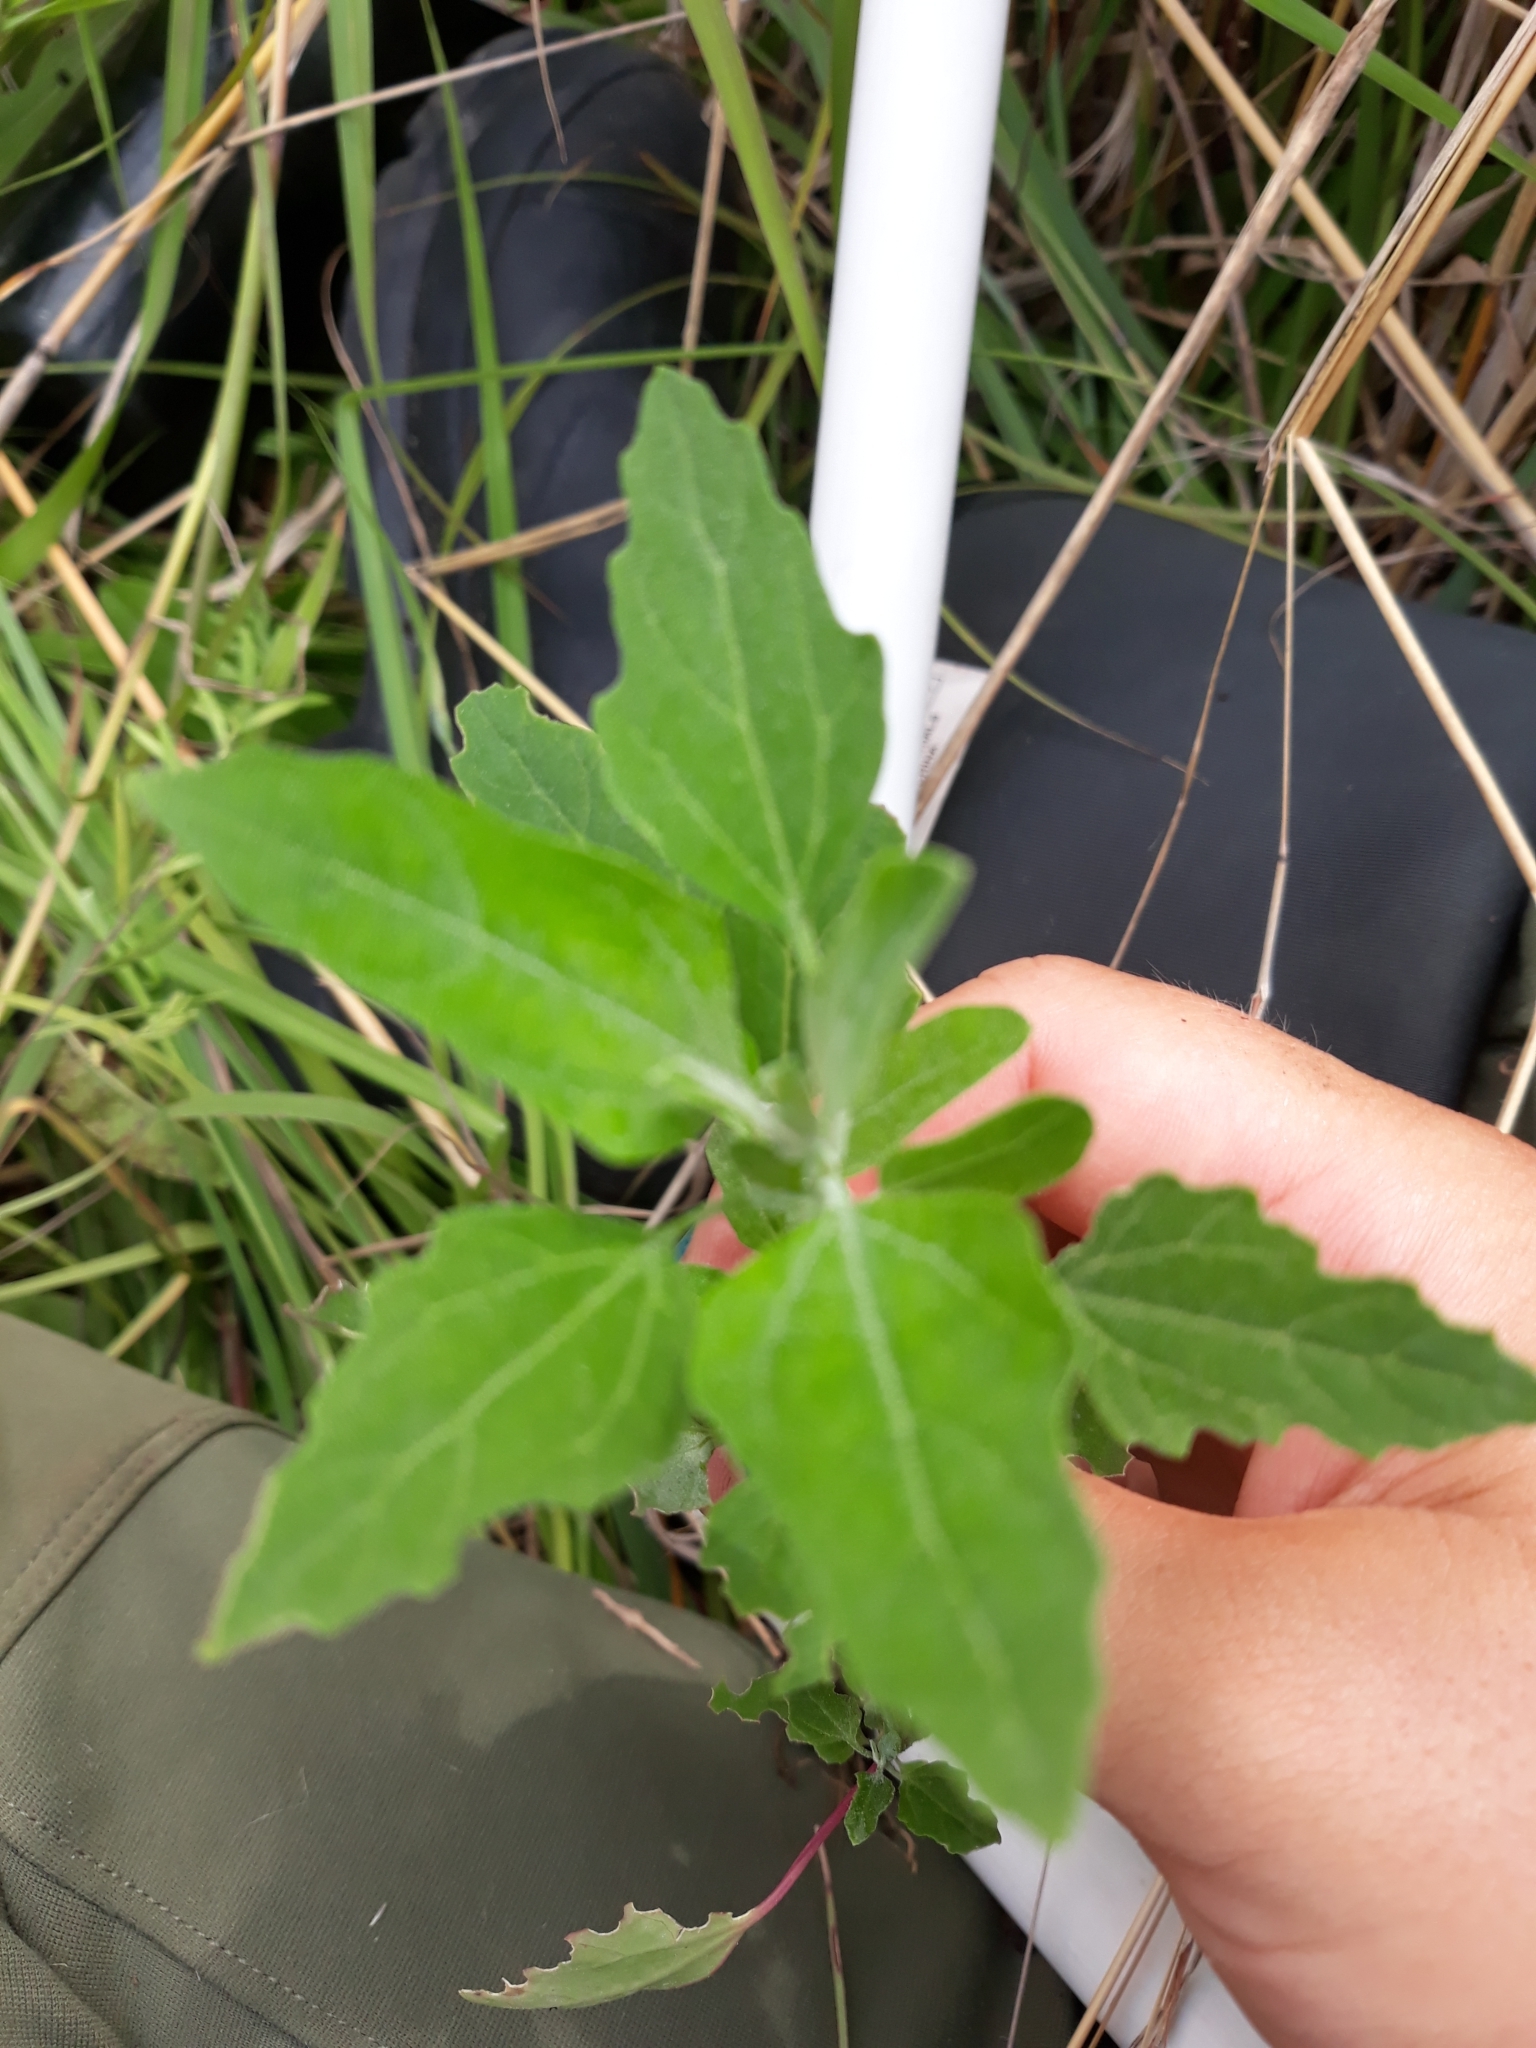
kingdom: Plantae
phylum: Tracheophyta
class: Magnoliopsida
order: Caryophyllales
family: Amaranthaceae
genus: Chenopodium
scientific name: Chenopodium album
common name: Fat-hen
